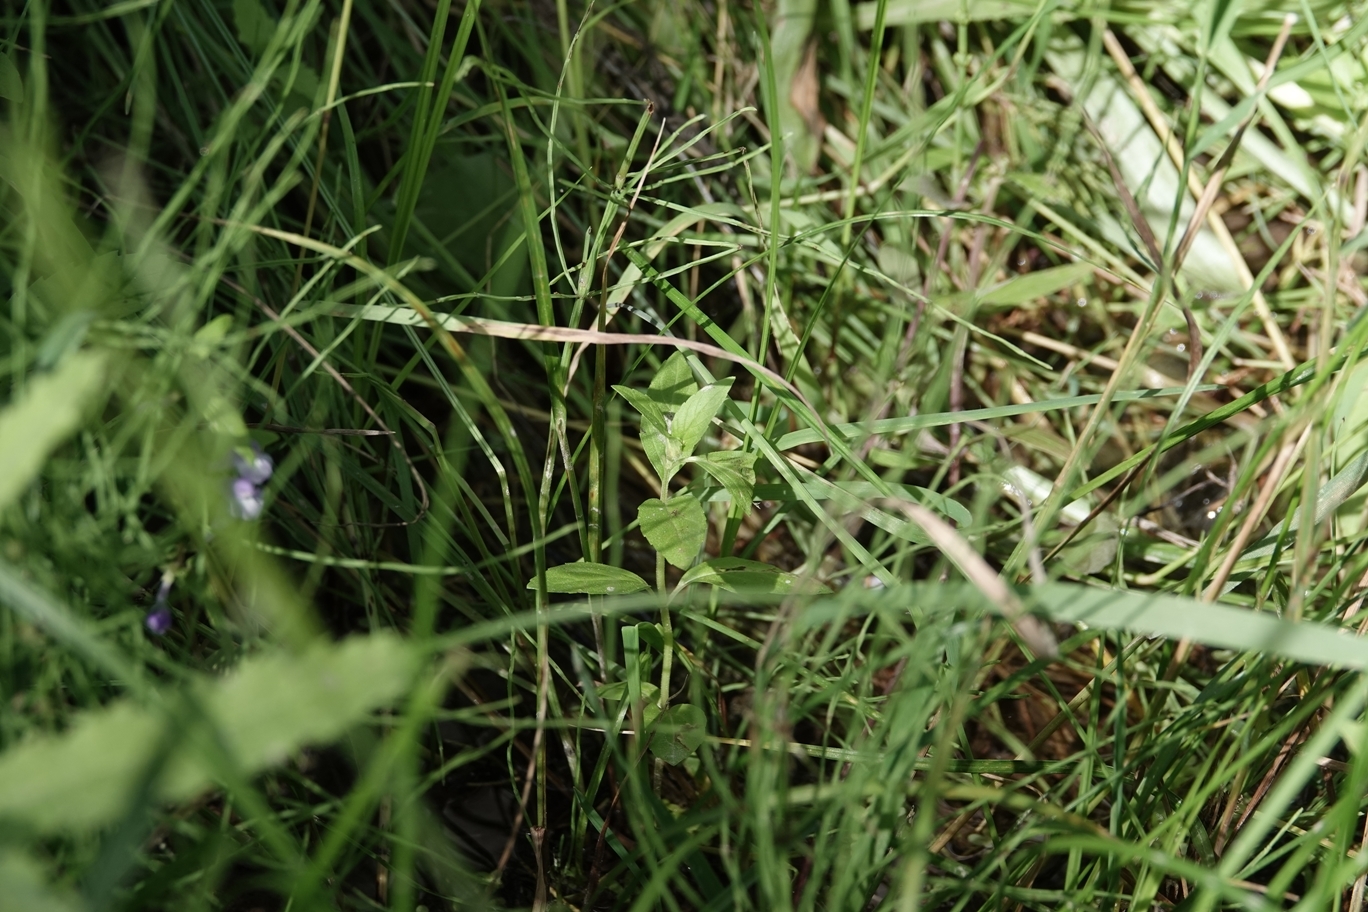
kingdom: Plantae
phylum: Tracheophyta
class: Magnoliopsida
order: Lamiales
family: Lamiaceae
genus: Mentha
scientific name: Mentha canadensis
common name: American corn mint
